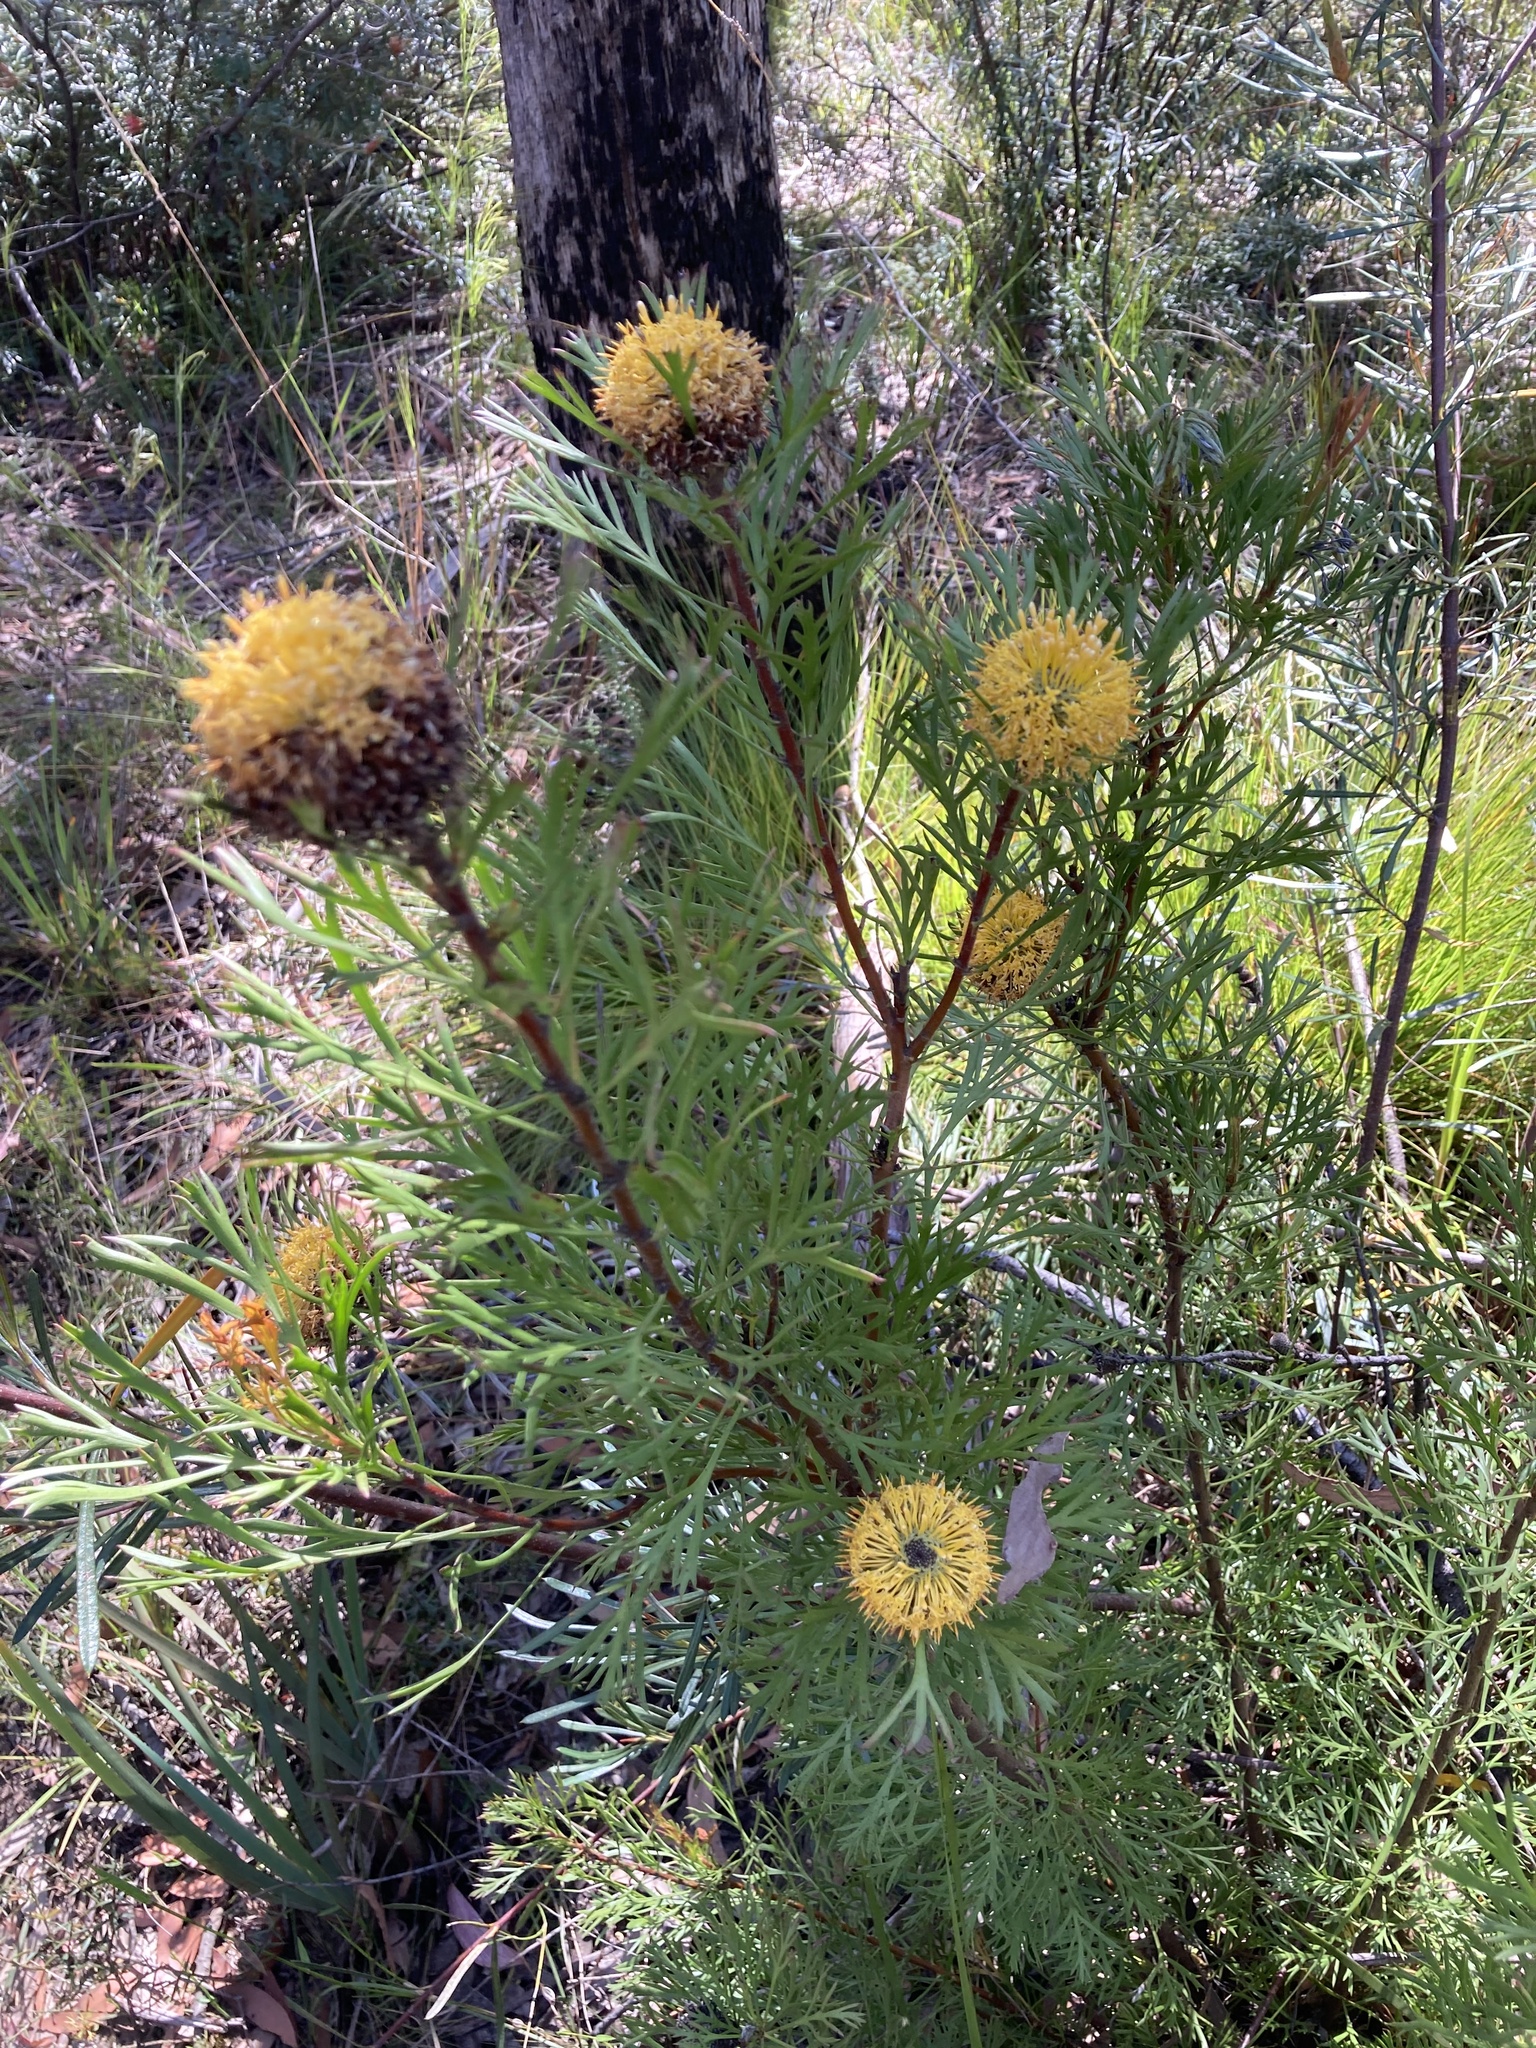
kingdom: Plantae
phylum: Tracheophyta
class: Magnoliopsida
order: Proteales
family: Proteaceae
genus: Isopogon
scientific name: Isopogon anemonifolius
